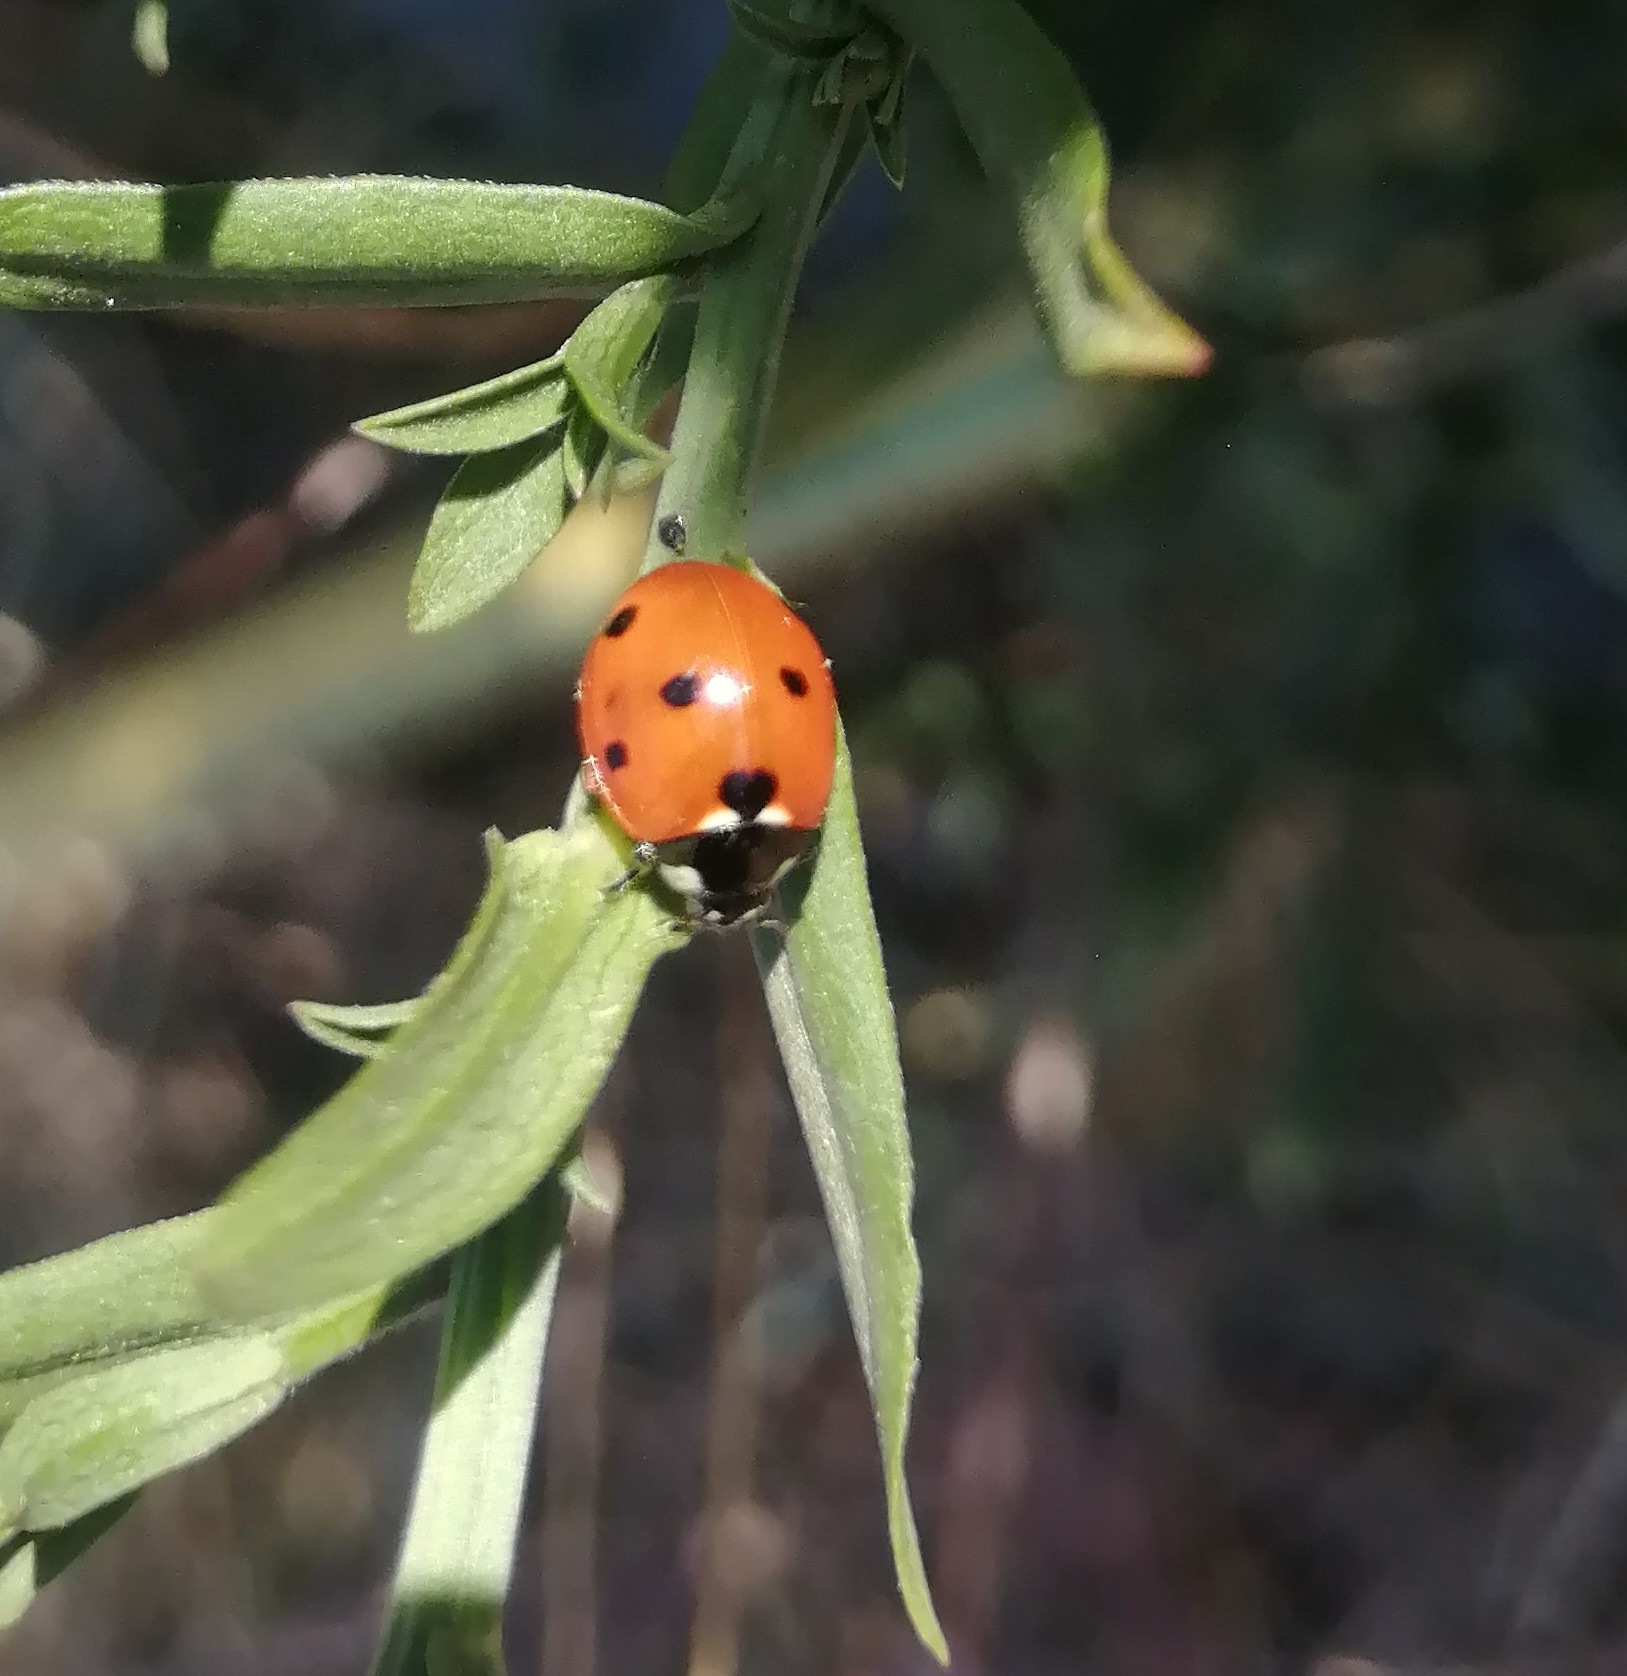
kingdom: Animalia
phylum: Arthropoda
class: Insecta
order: Coleoptera
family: Coccinellidae
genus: Coccinella
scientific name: Coccinella septempunctata
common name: Sevenspotted lady beetle
